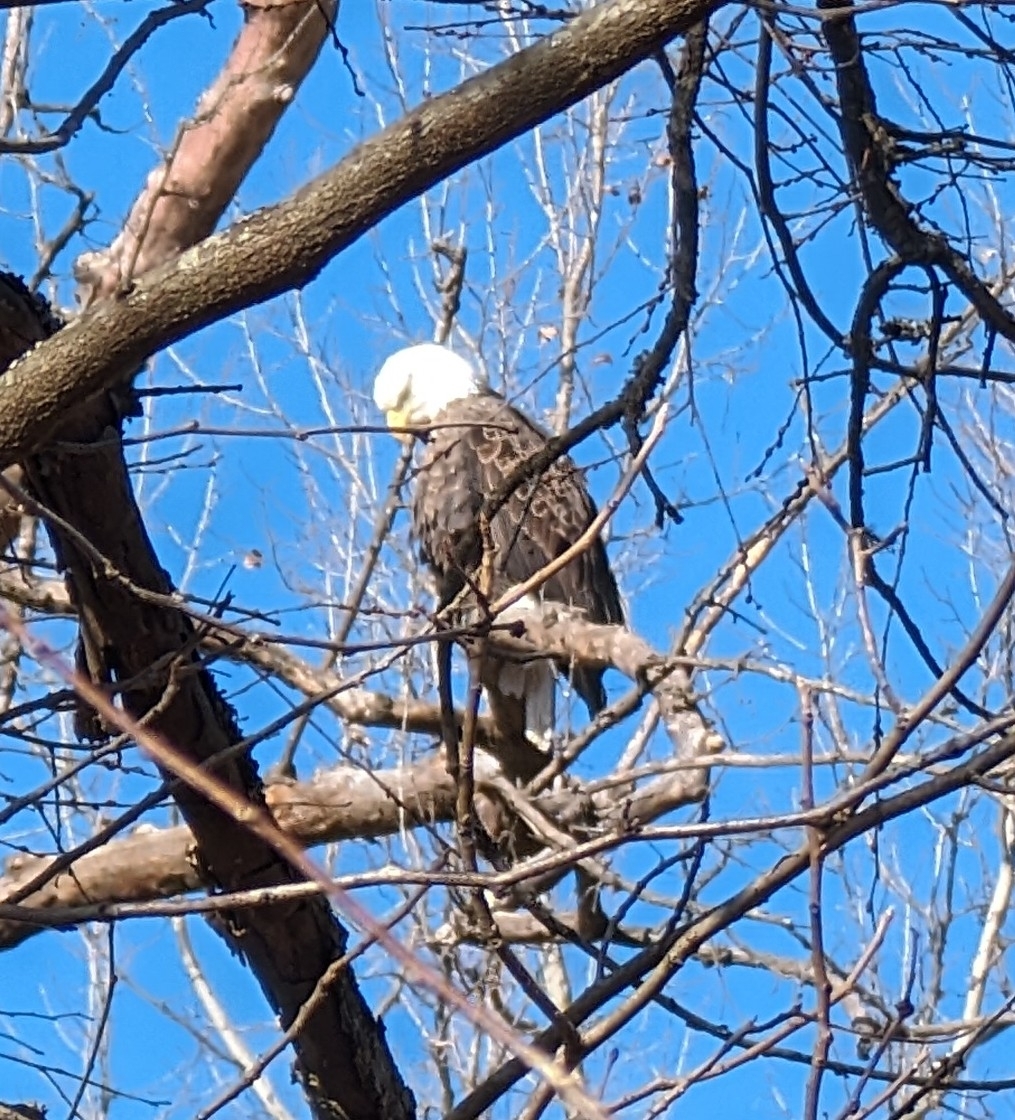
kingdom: Animalia
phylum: Chordata
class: Aves
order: Accipitriformes
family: Accipitridae
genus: Haliaeetus
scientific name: Haliaeetus leucocephalus
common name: Bald eagle
